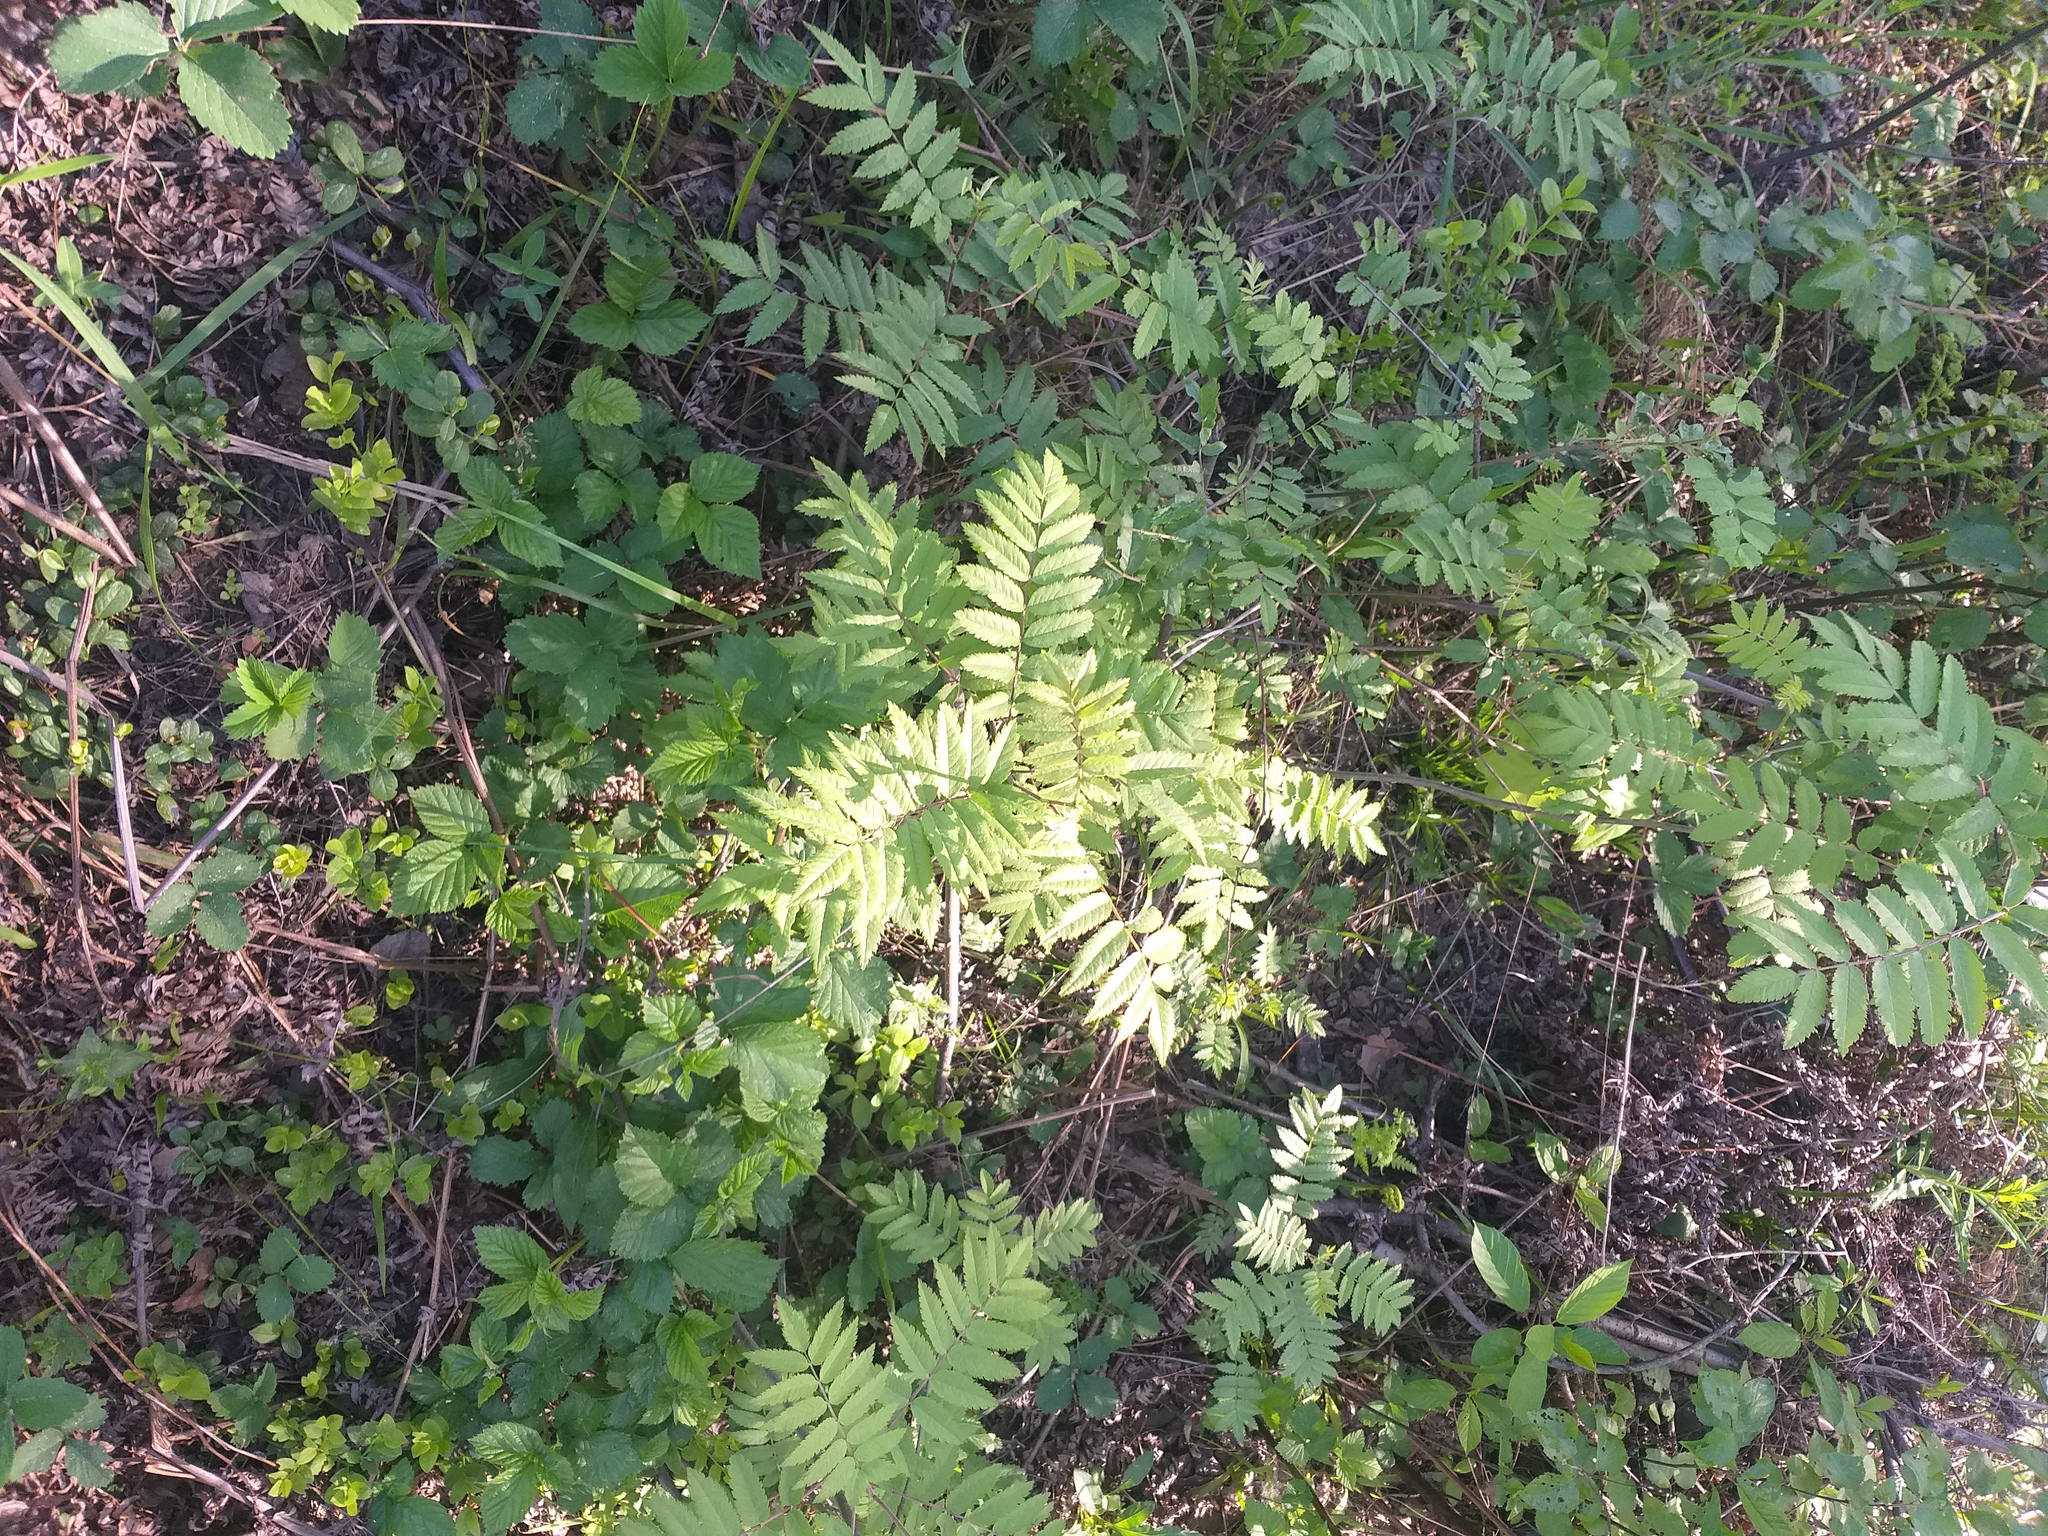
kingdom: Plantae
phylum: Tracheophyta
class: Magnoliopsida
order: Rosales
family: Rosaceae
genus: Sorbus
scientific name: Sorbus aucuparia
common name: Rowan
